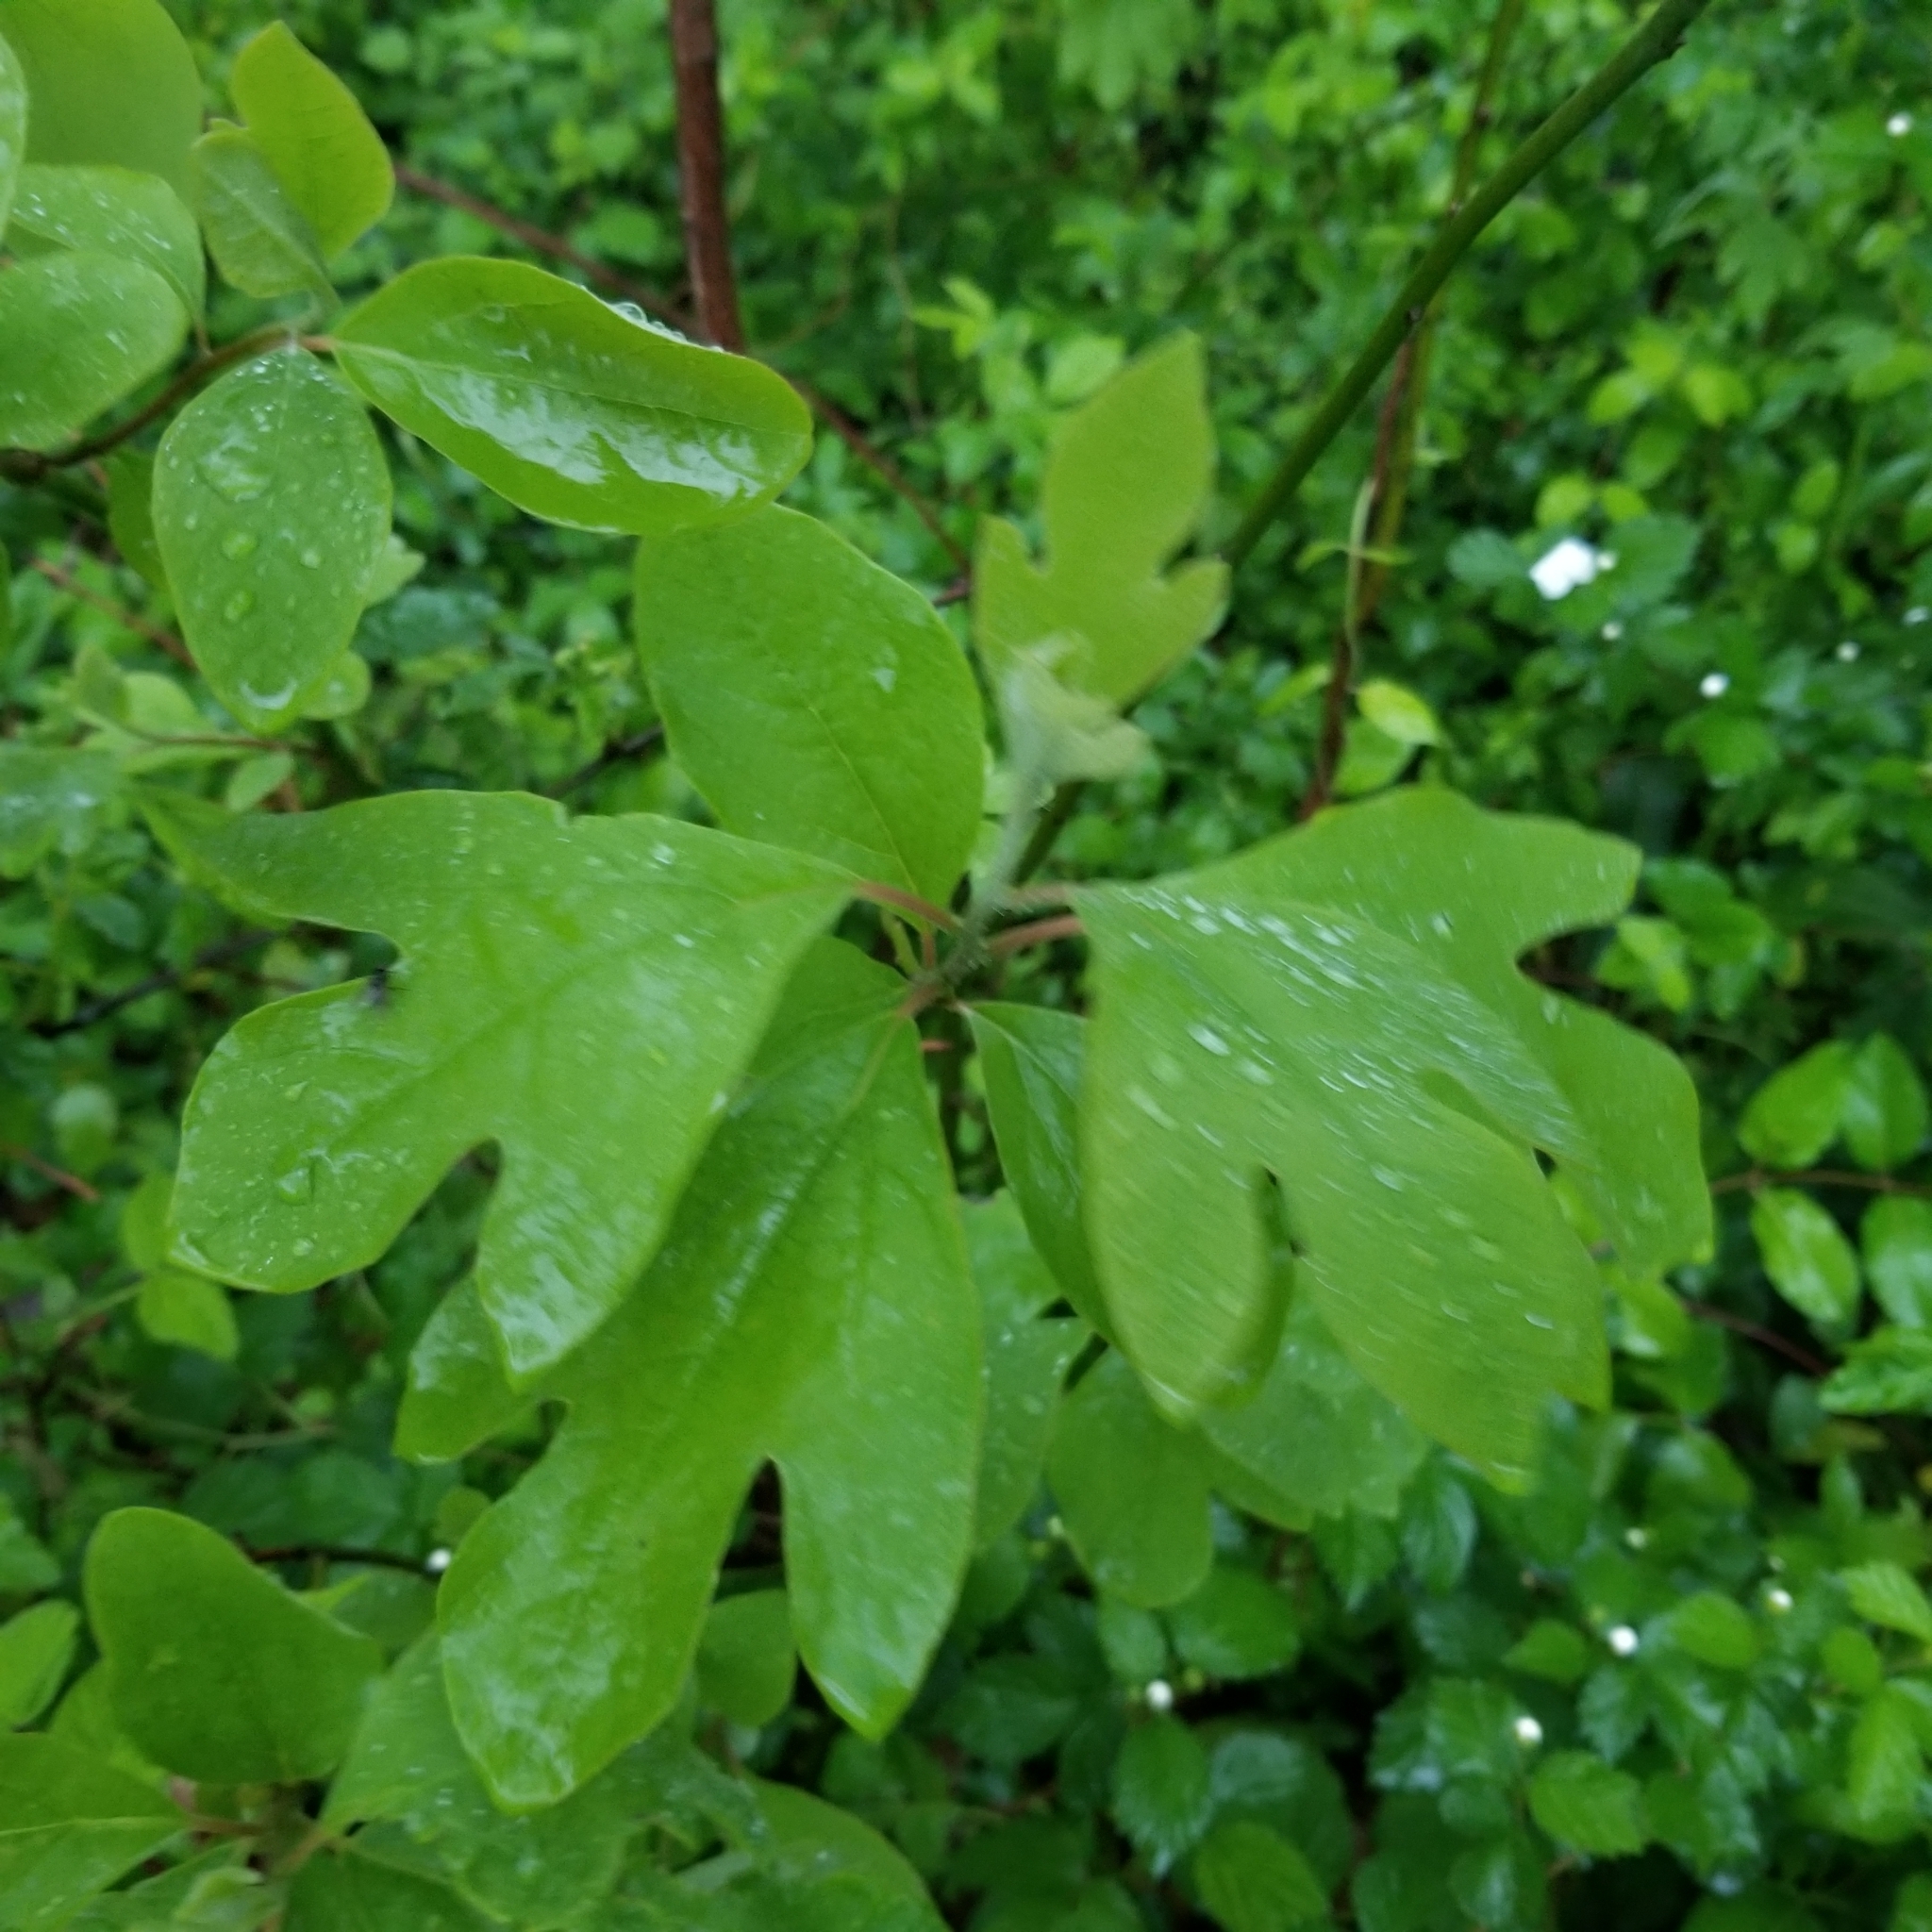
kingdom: Plantae
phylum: Tracheophyta
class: Magnoliopsida
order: Laurales
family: Lauraceae
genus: Sassafras
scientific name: Sassafras albidum
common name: Sassafras
